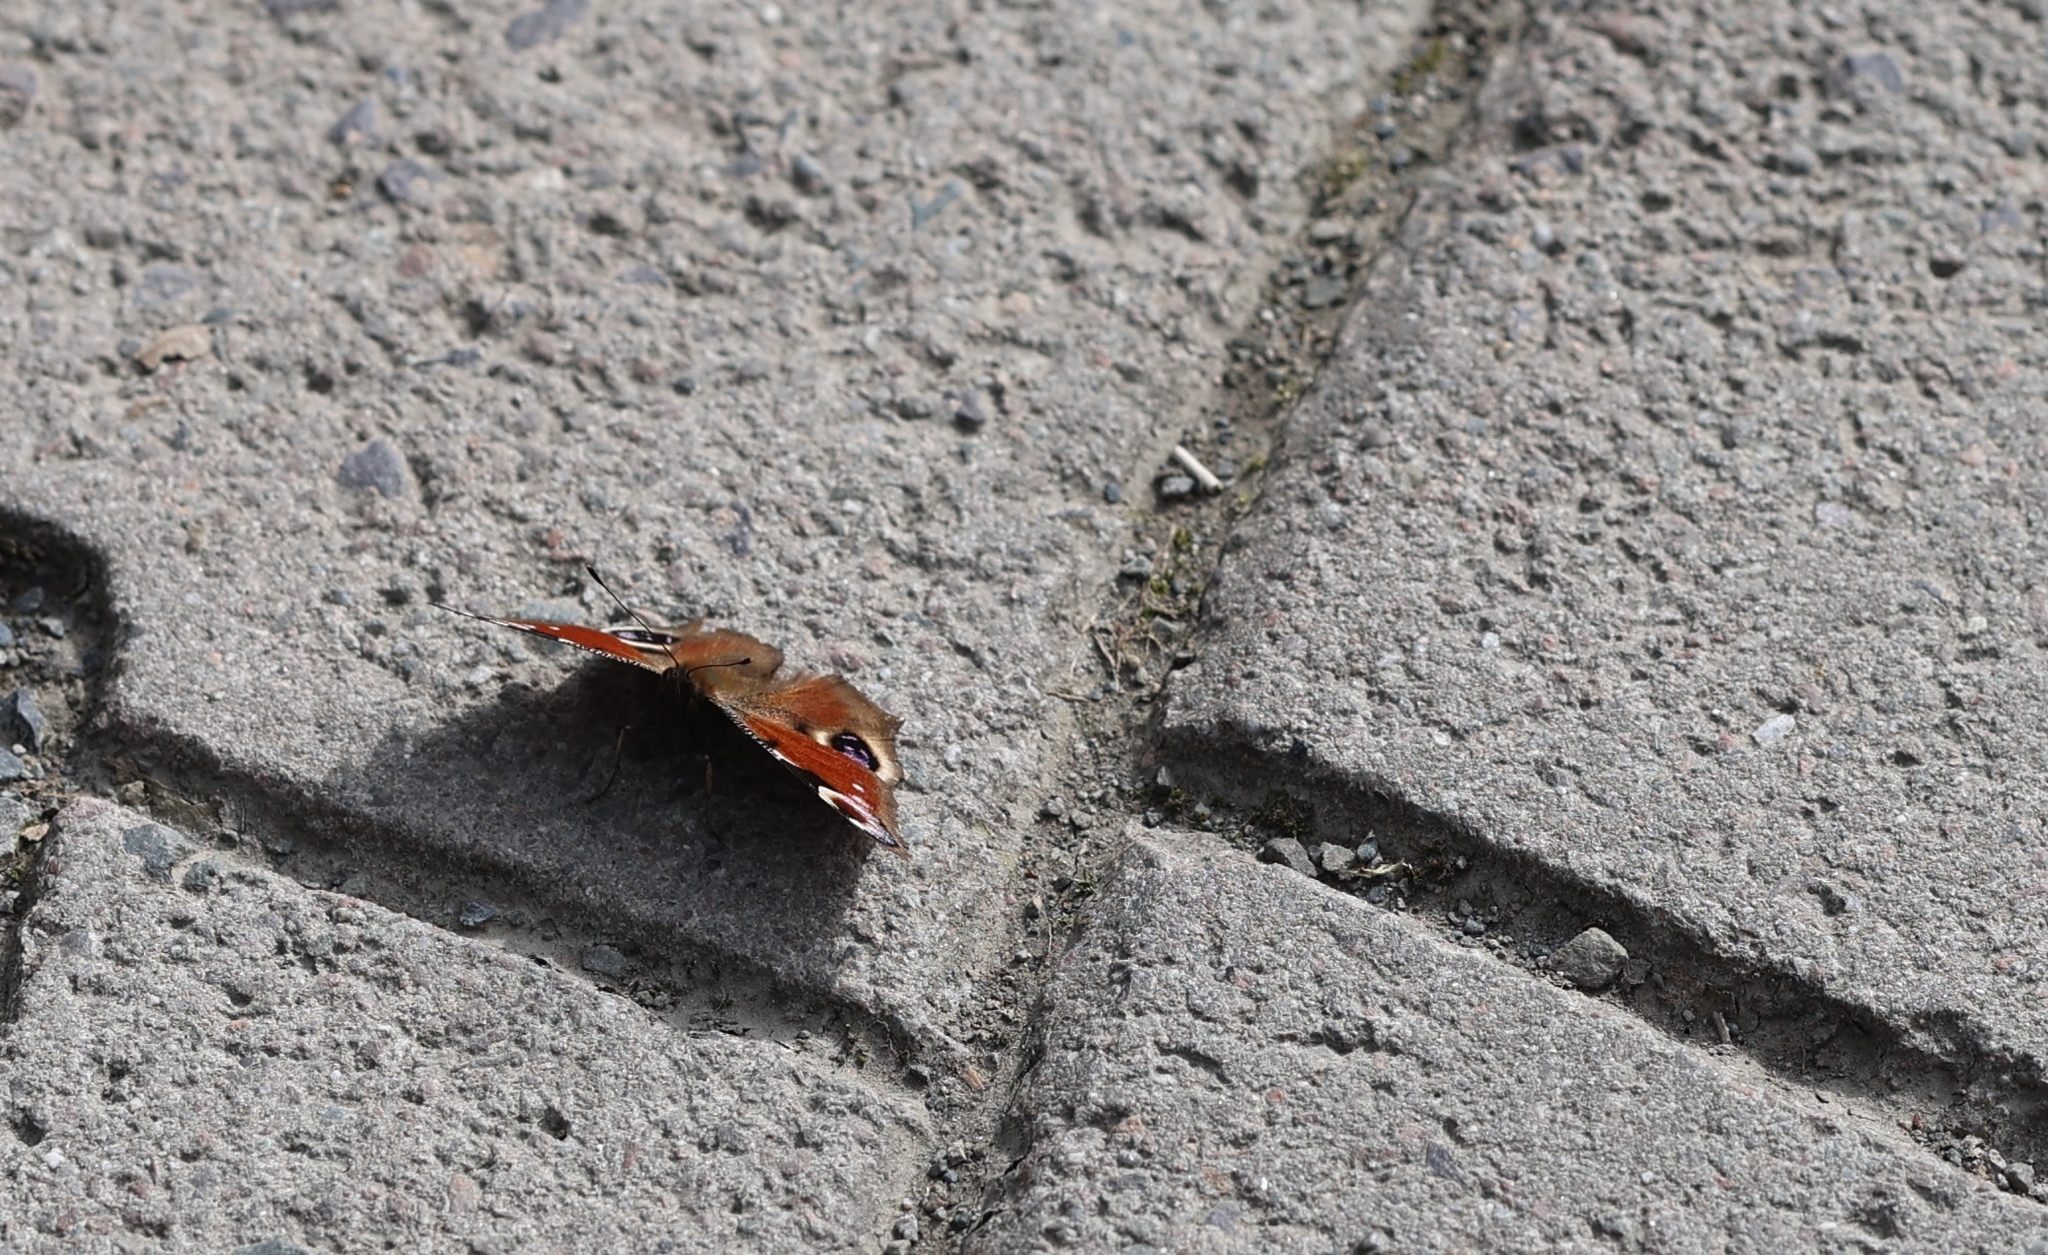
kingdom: Animalia
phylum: Arthropoda
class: Insecta
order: Lepidoptera
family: Nymphalidae
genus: Aglais
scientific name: Aglais io
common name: Peacock
